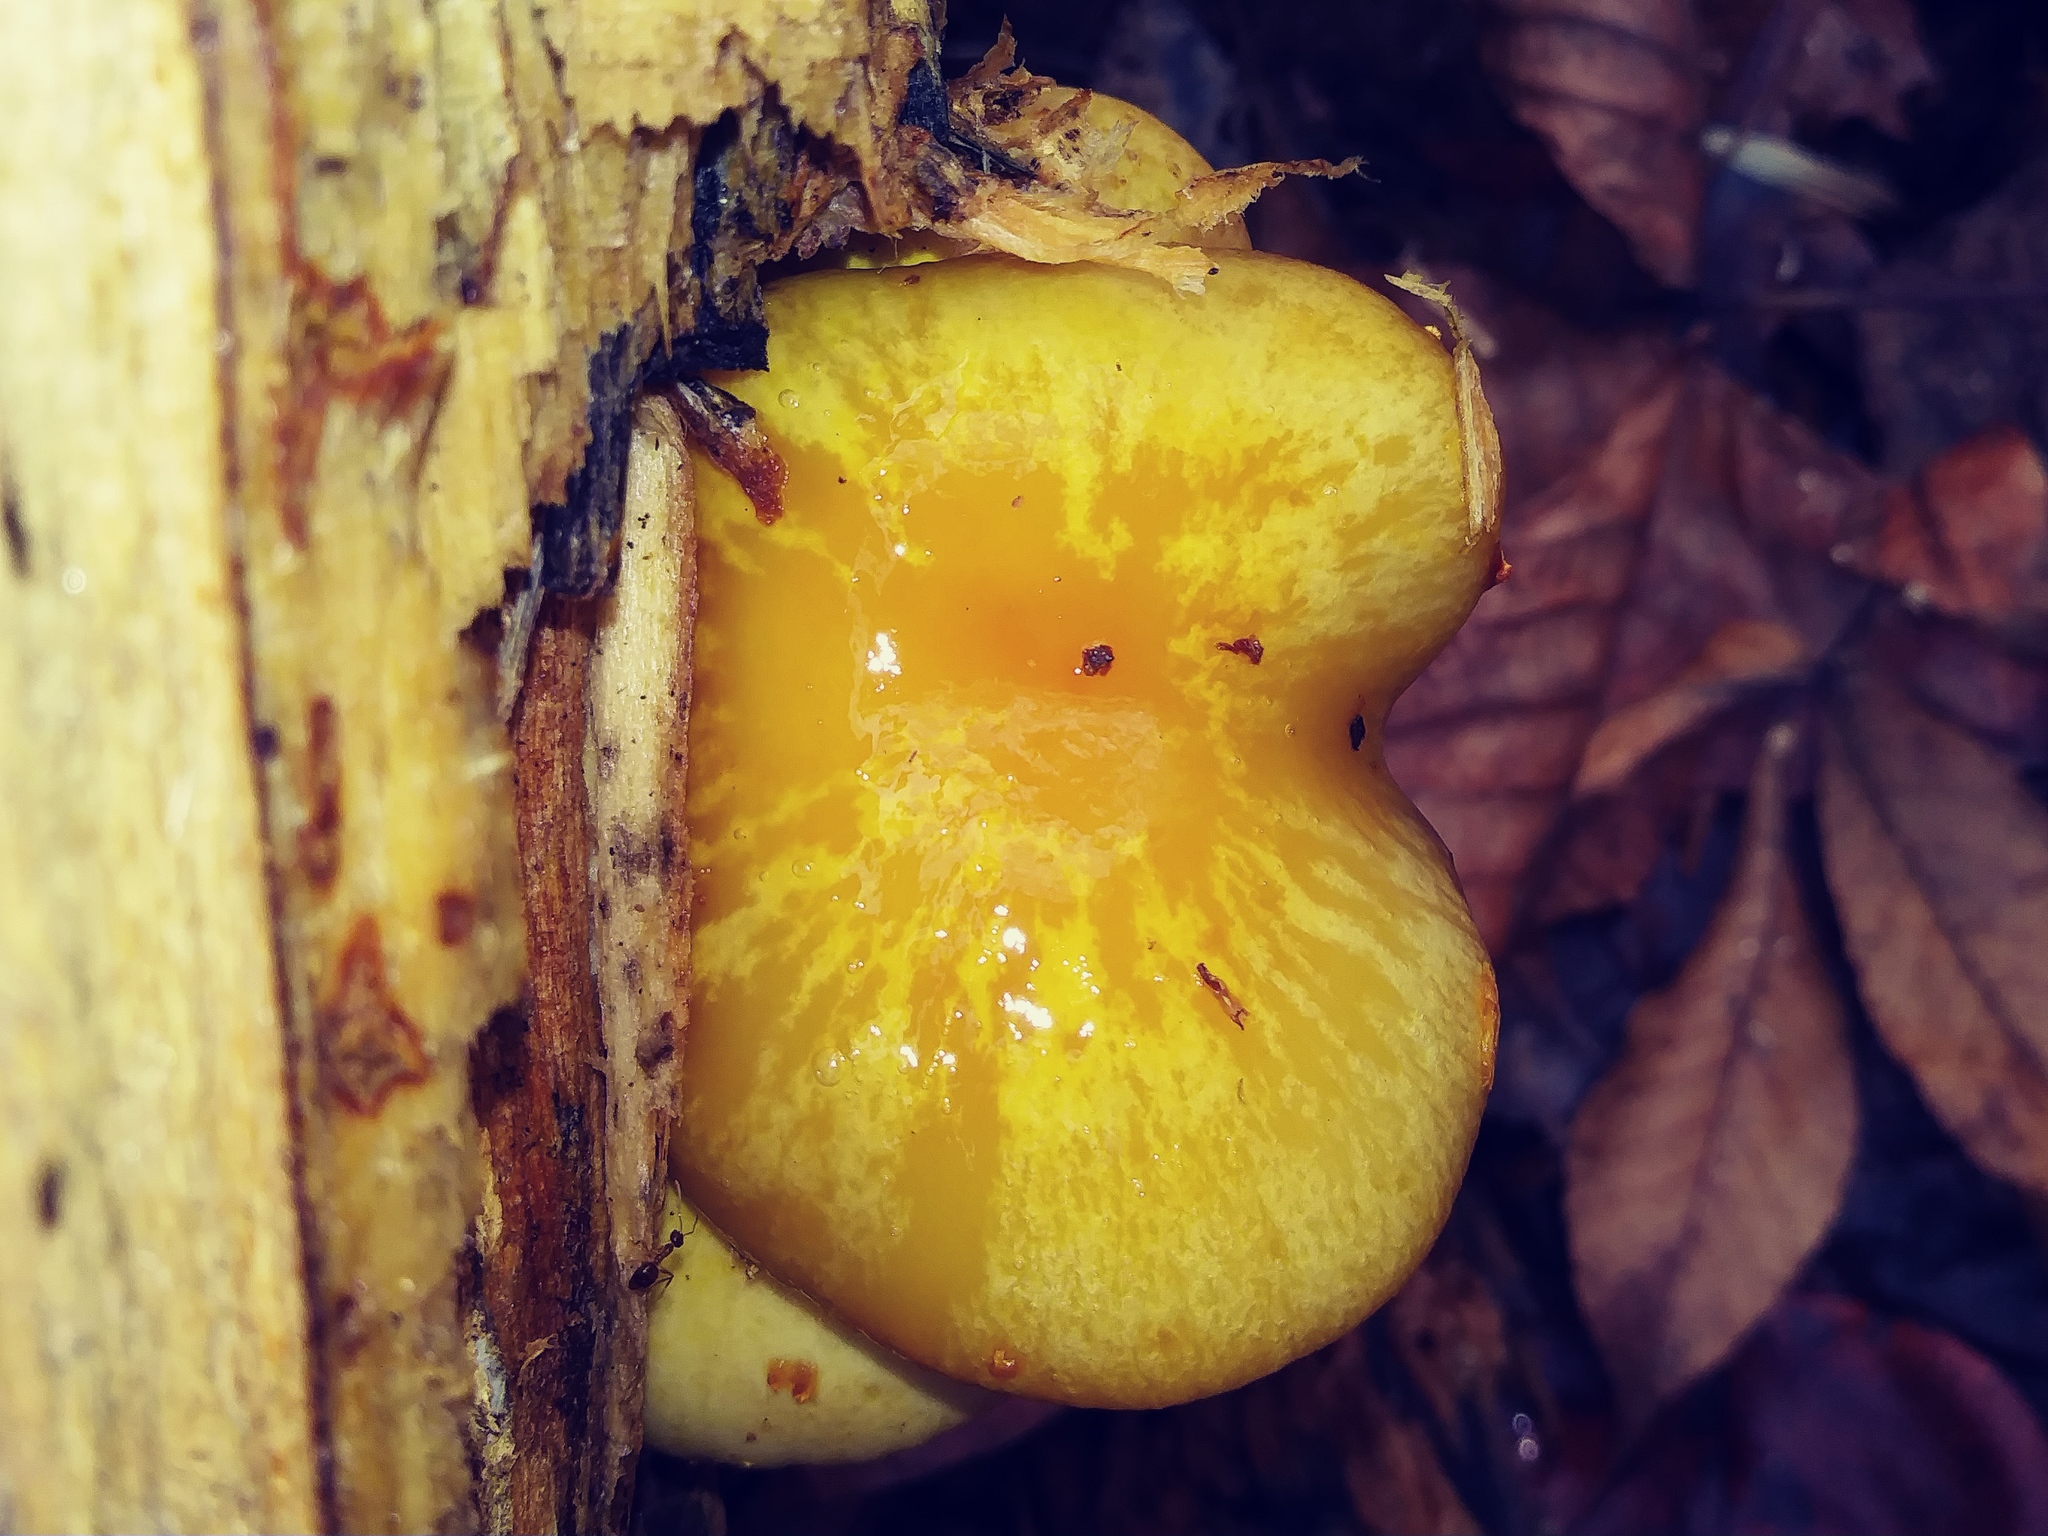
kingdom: Fungi
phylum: Basidiomycota
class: Agaricomycetes
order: Agaricales
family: Strophariaceae
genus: Pholiota
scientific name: Pholiota aurivella
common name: Golden scalycap
